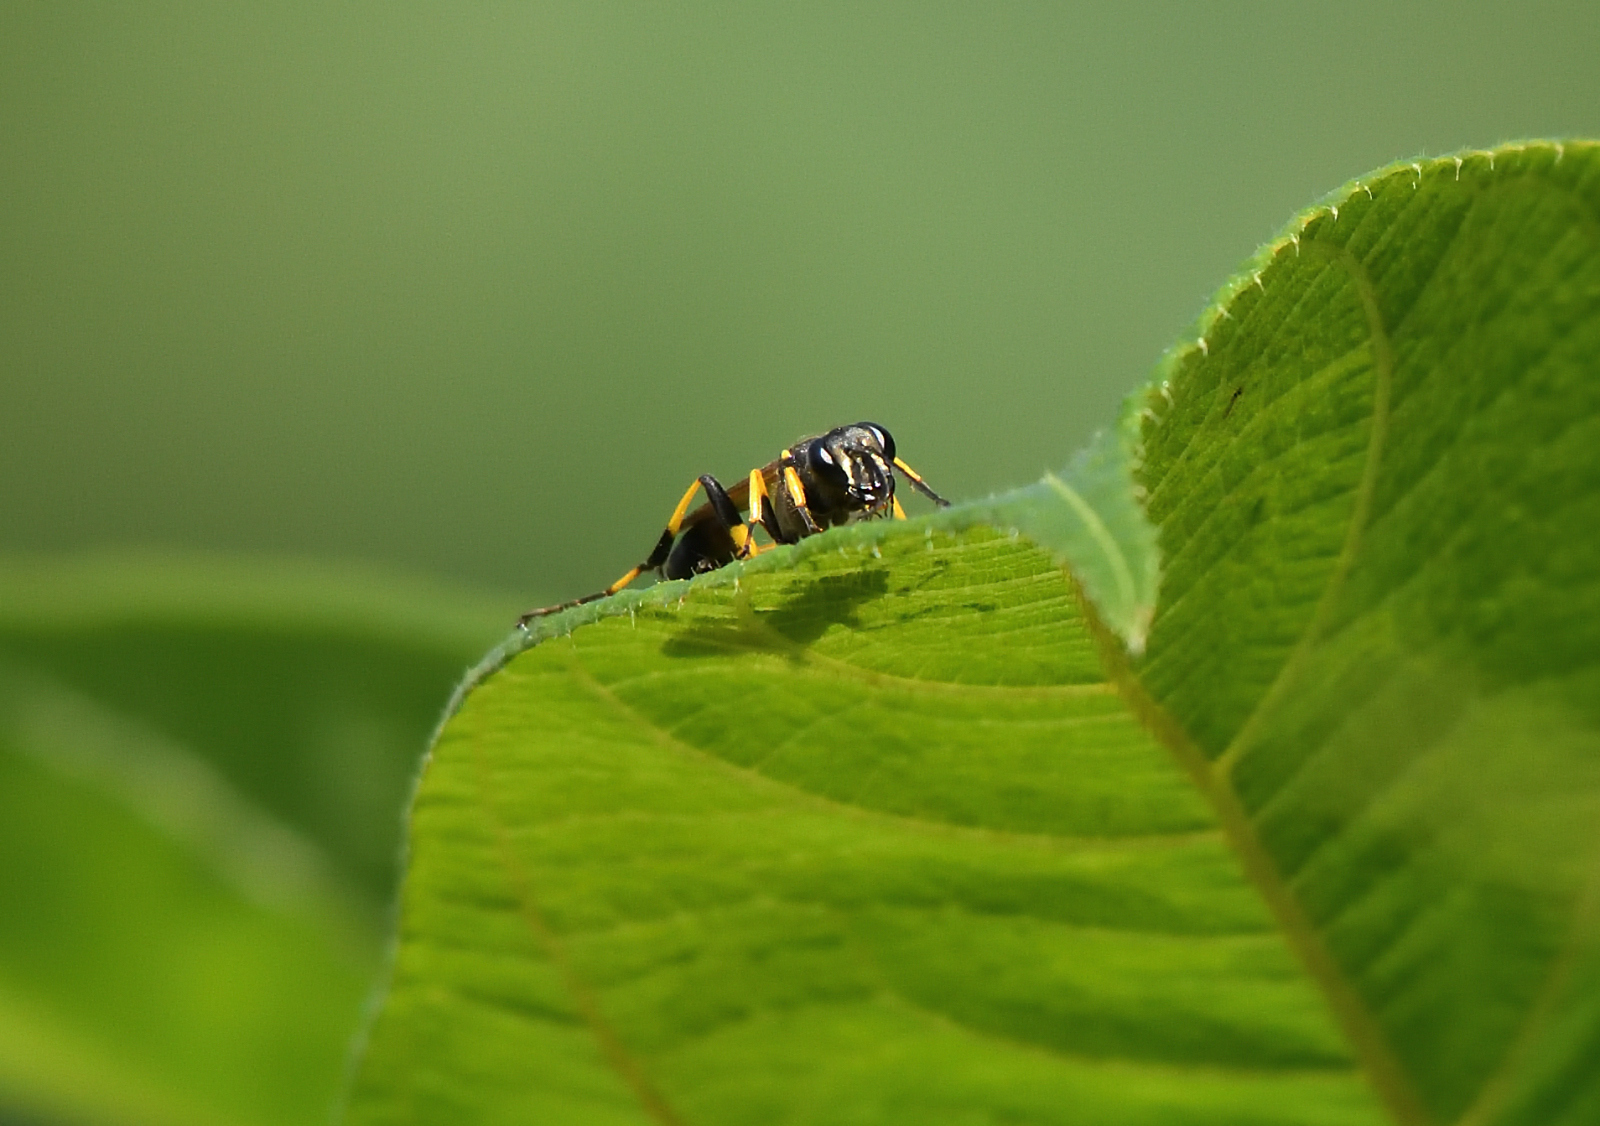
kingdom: Animalia
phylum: Arthropoda
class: Insecta
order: Hymenoptera
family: Sphecidae
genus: Sceliphron
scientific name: Sceliphron madraspatanum
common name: Mud dauber
